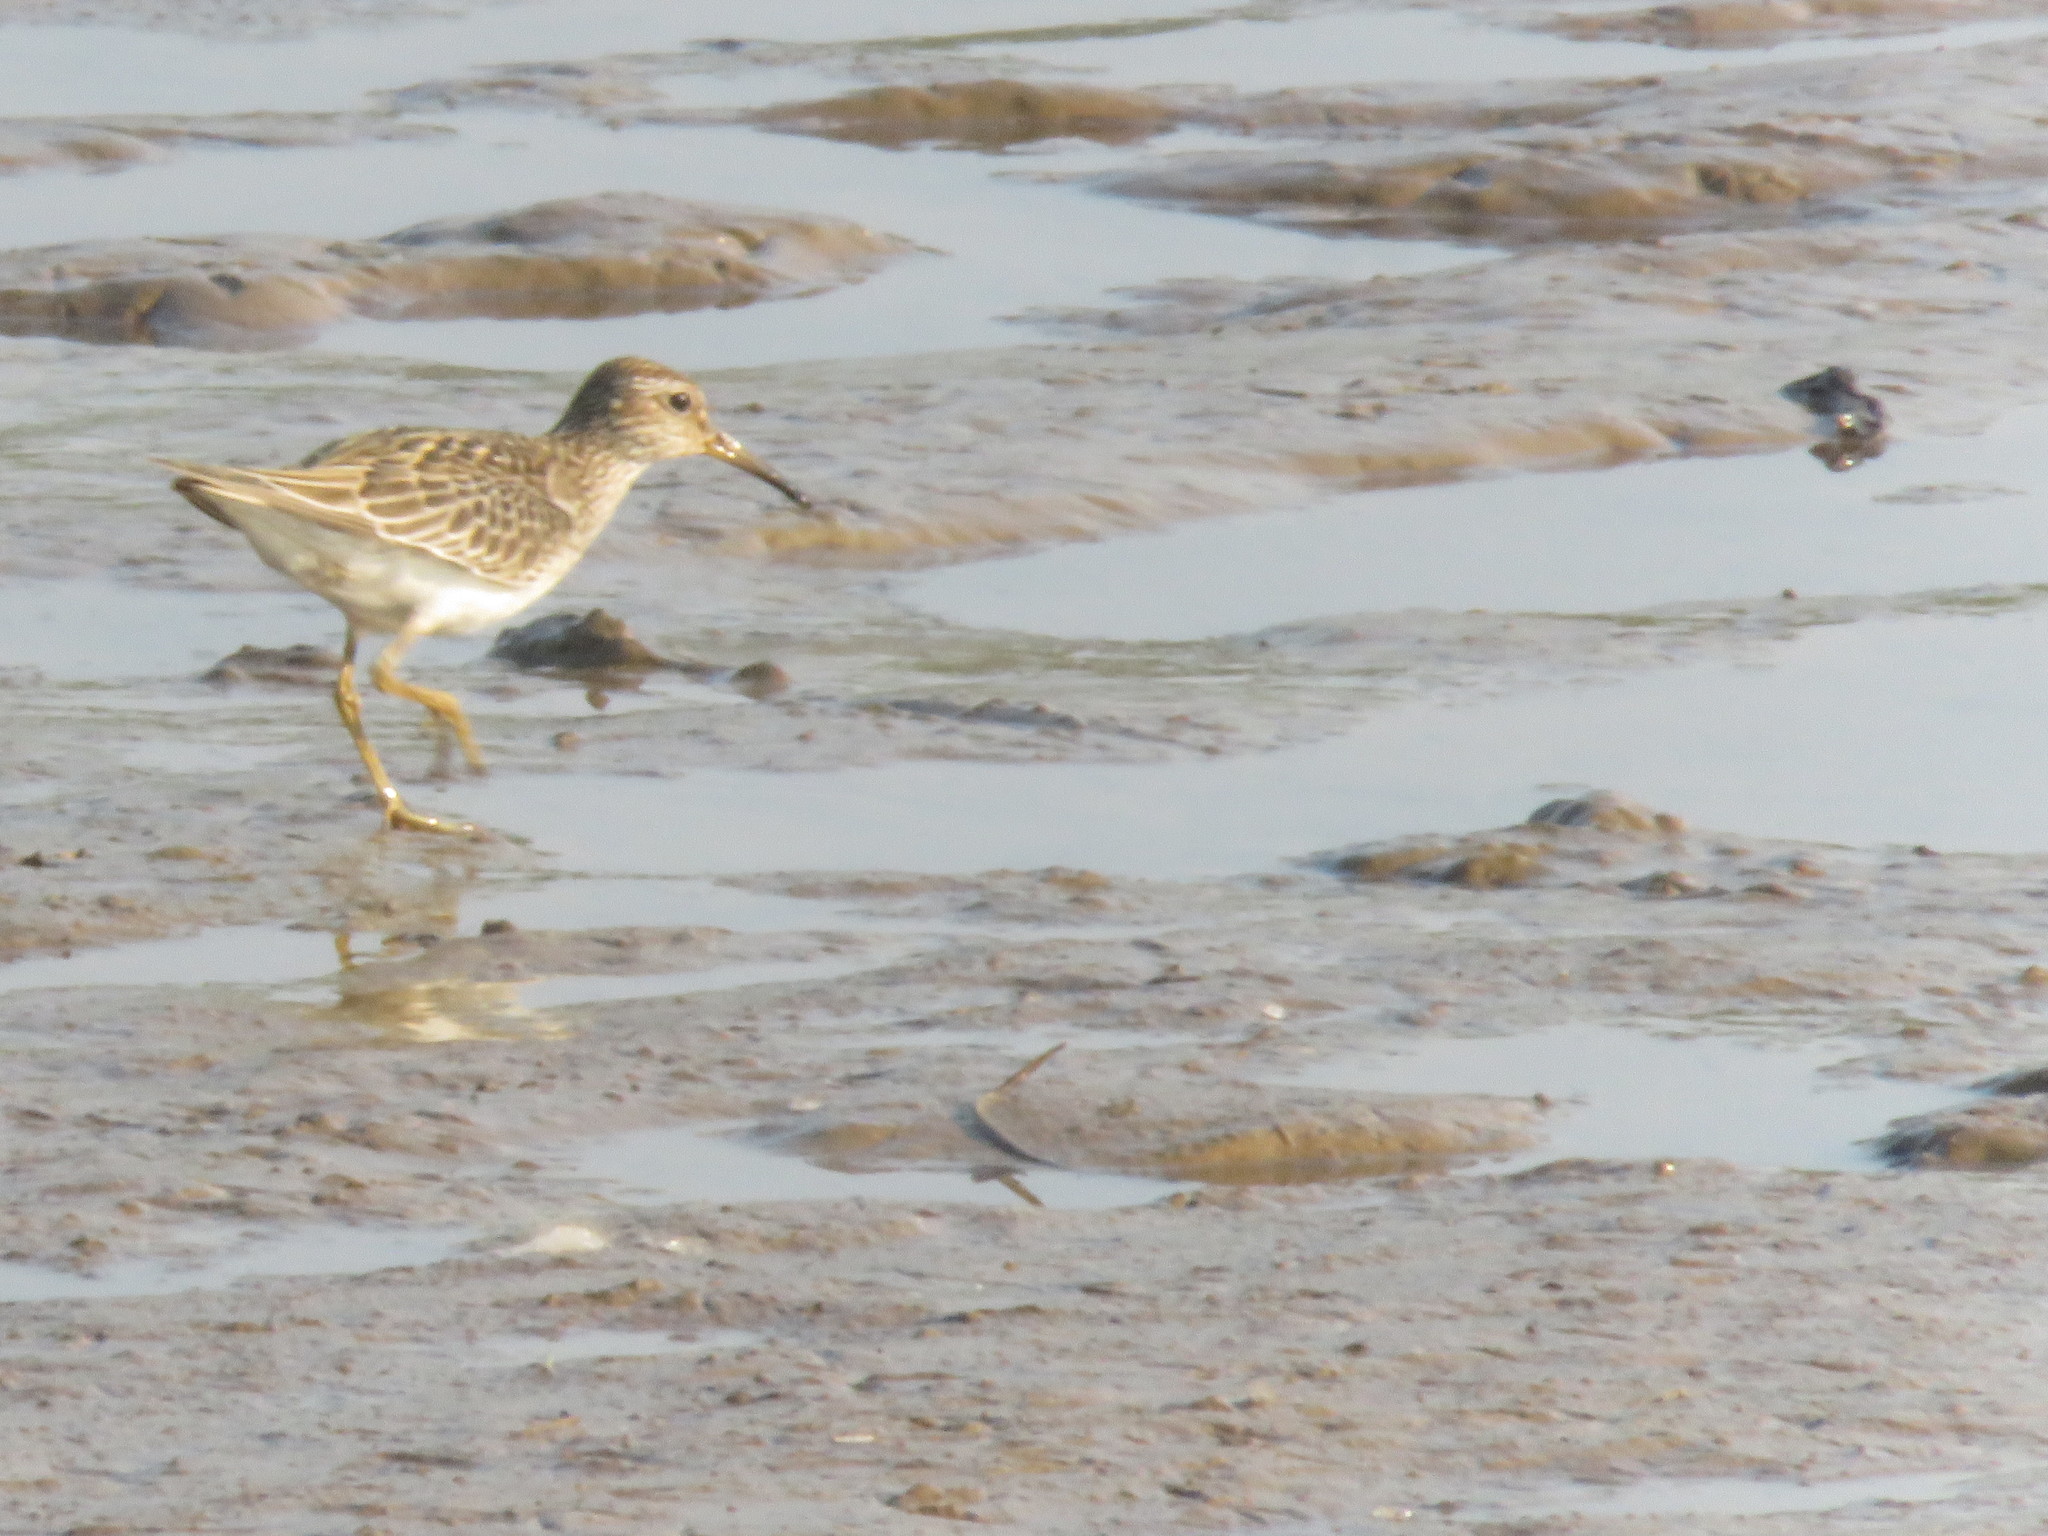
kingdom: Animalia
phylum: Chordata
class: Aves
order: Charadriiformes
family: Scolopacidae
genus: Calidris
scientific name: Calidris melanotos
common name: Pectoral sandpiper
